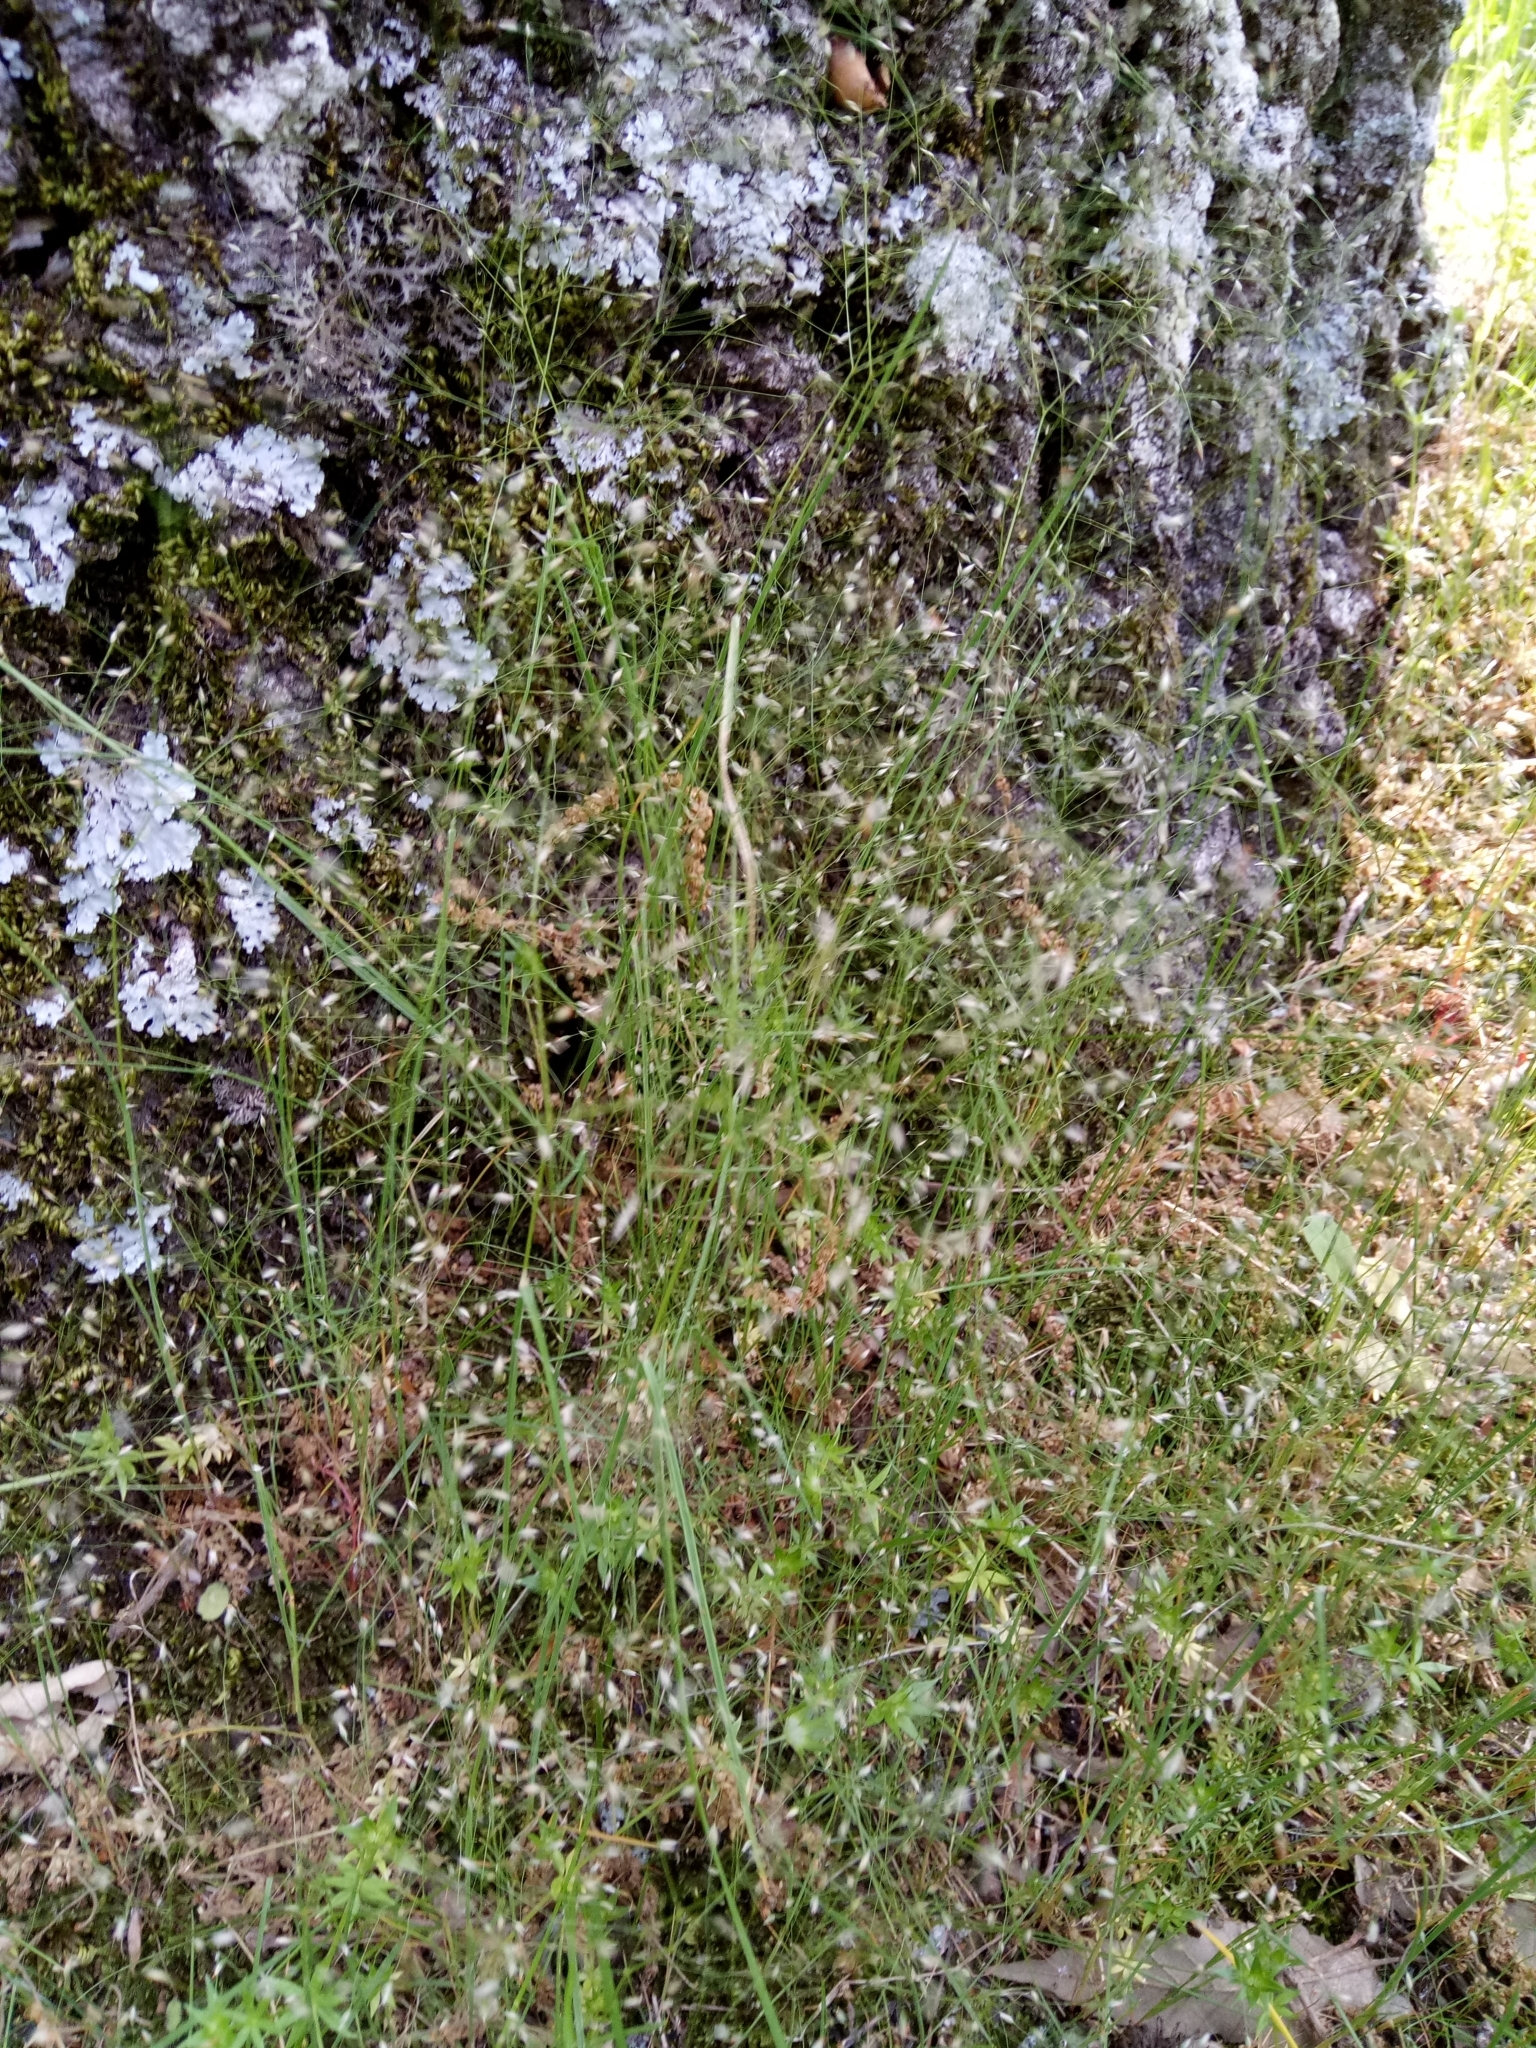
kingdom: Plantae
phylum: Tracheophyta
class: Liliopsida
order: Poales
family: Poaceae
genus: Aira
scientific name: Aira tenorei
